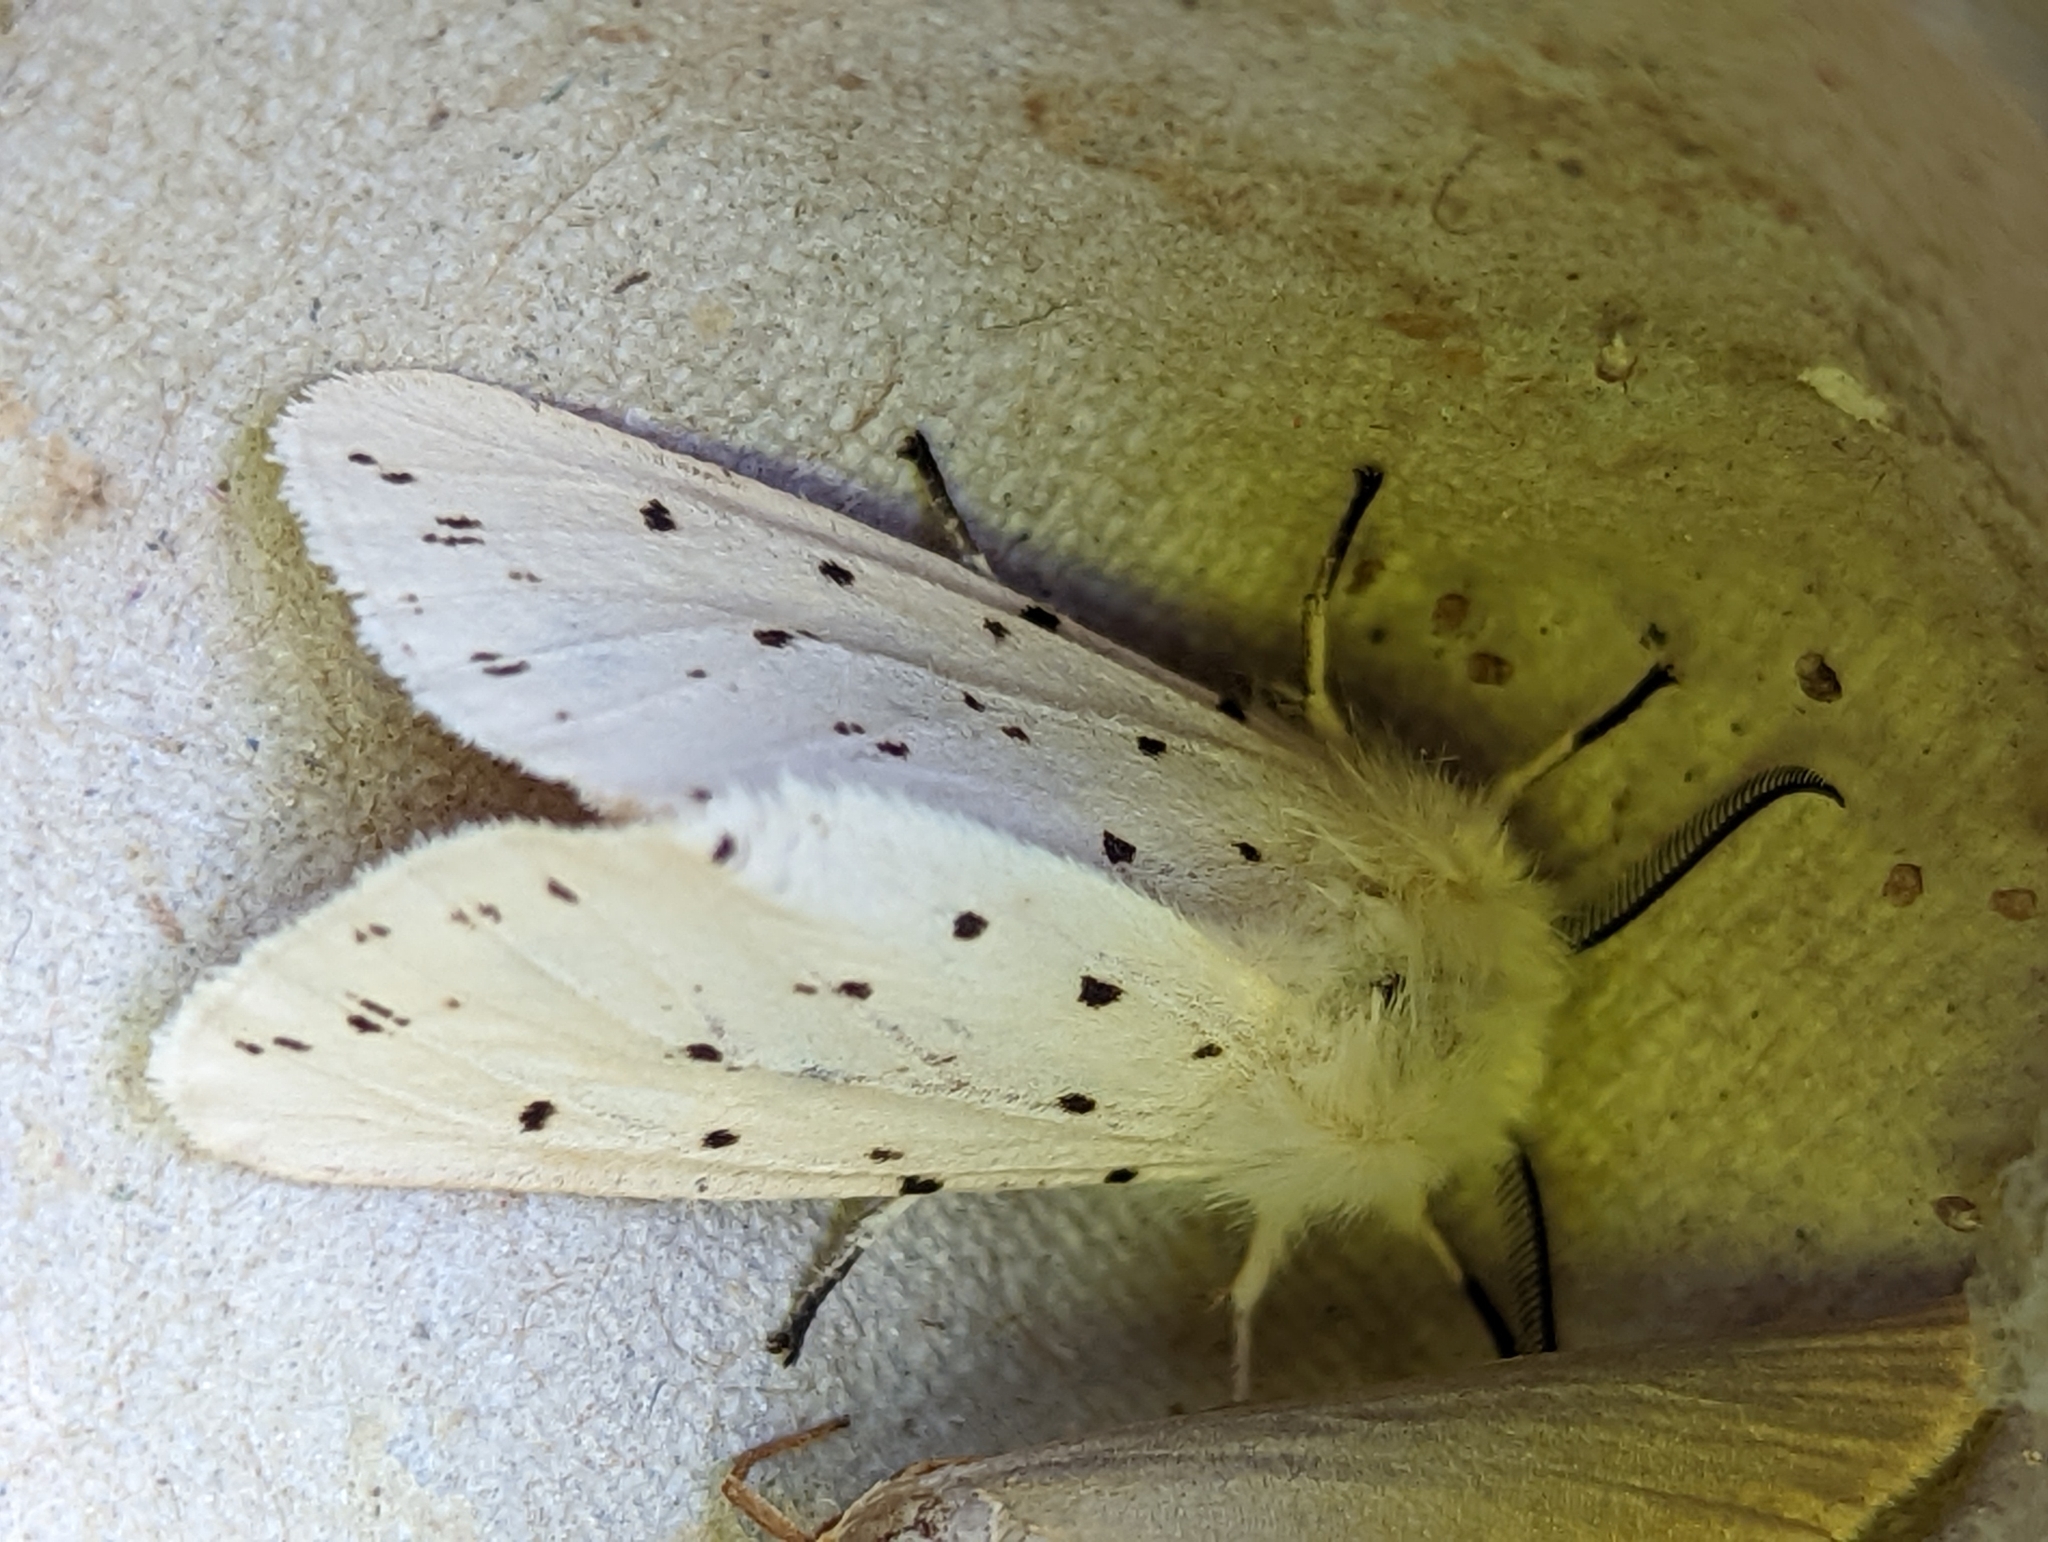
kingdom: Animalia
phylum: Arthropoda
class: Insecta
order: Lepidoptera
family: Erebidae
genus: Spilosoma
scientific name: Spilosoma lubricipeda
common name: White ermine
